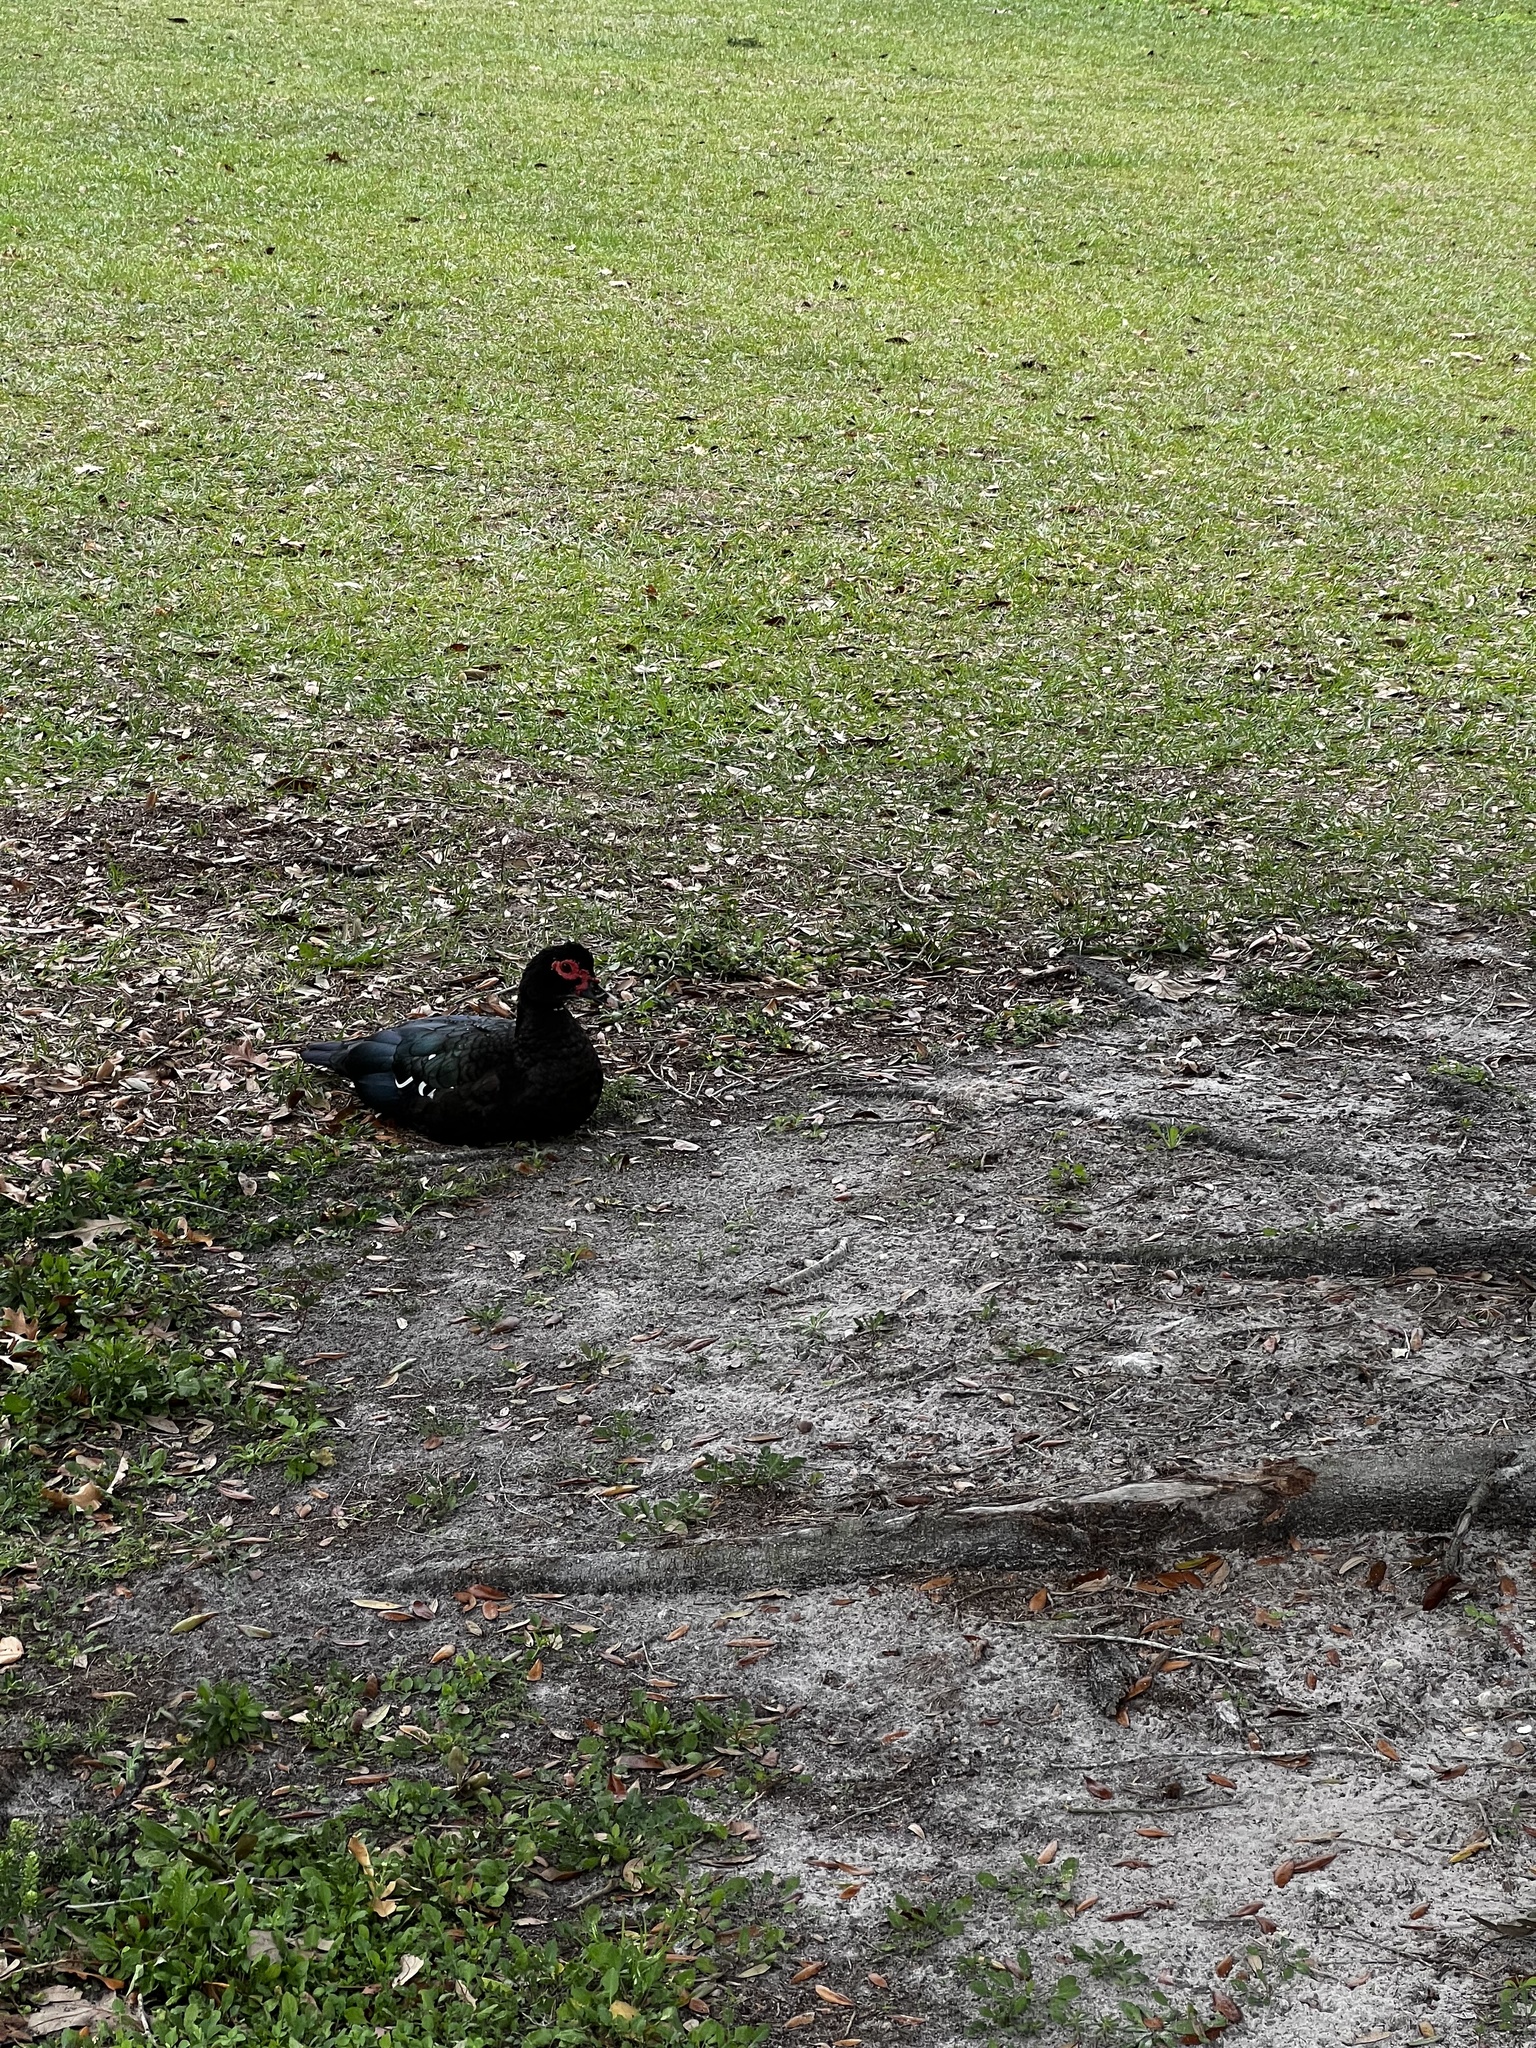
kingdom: Animalia
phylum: Chordata
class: Aves
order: Anseriformes
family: Anatidae
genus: Cairina
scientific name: Cairina moschata
